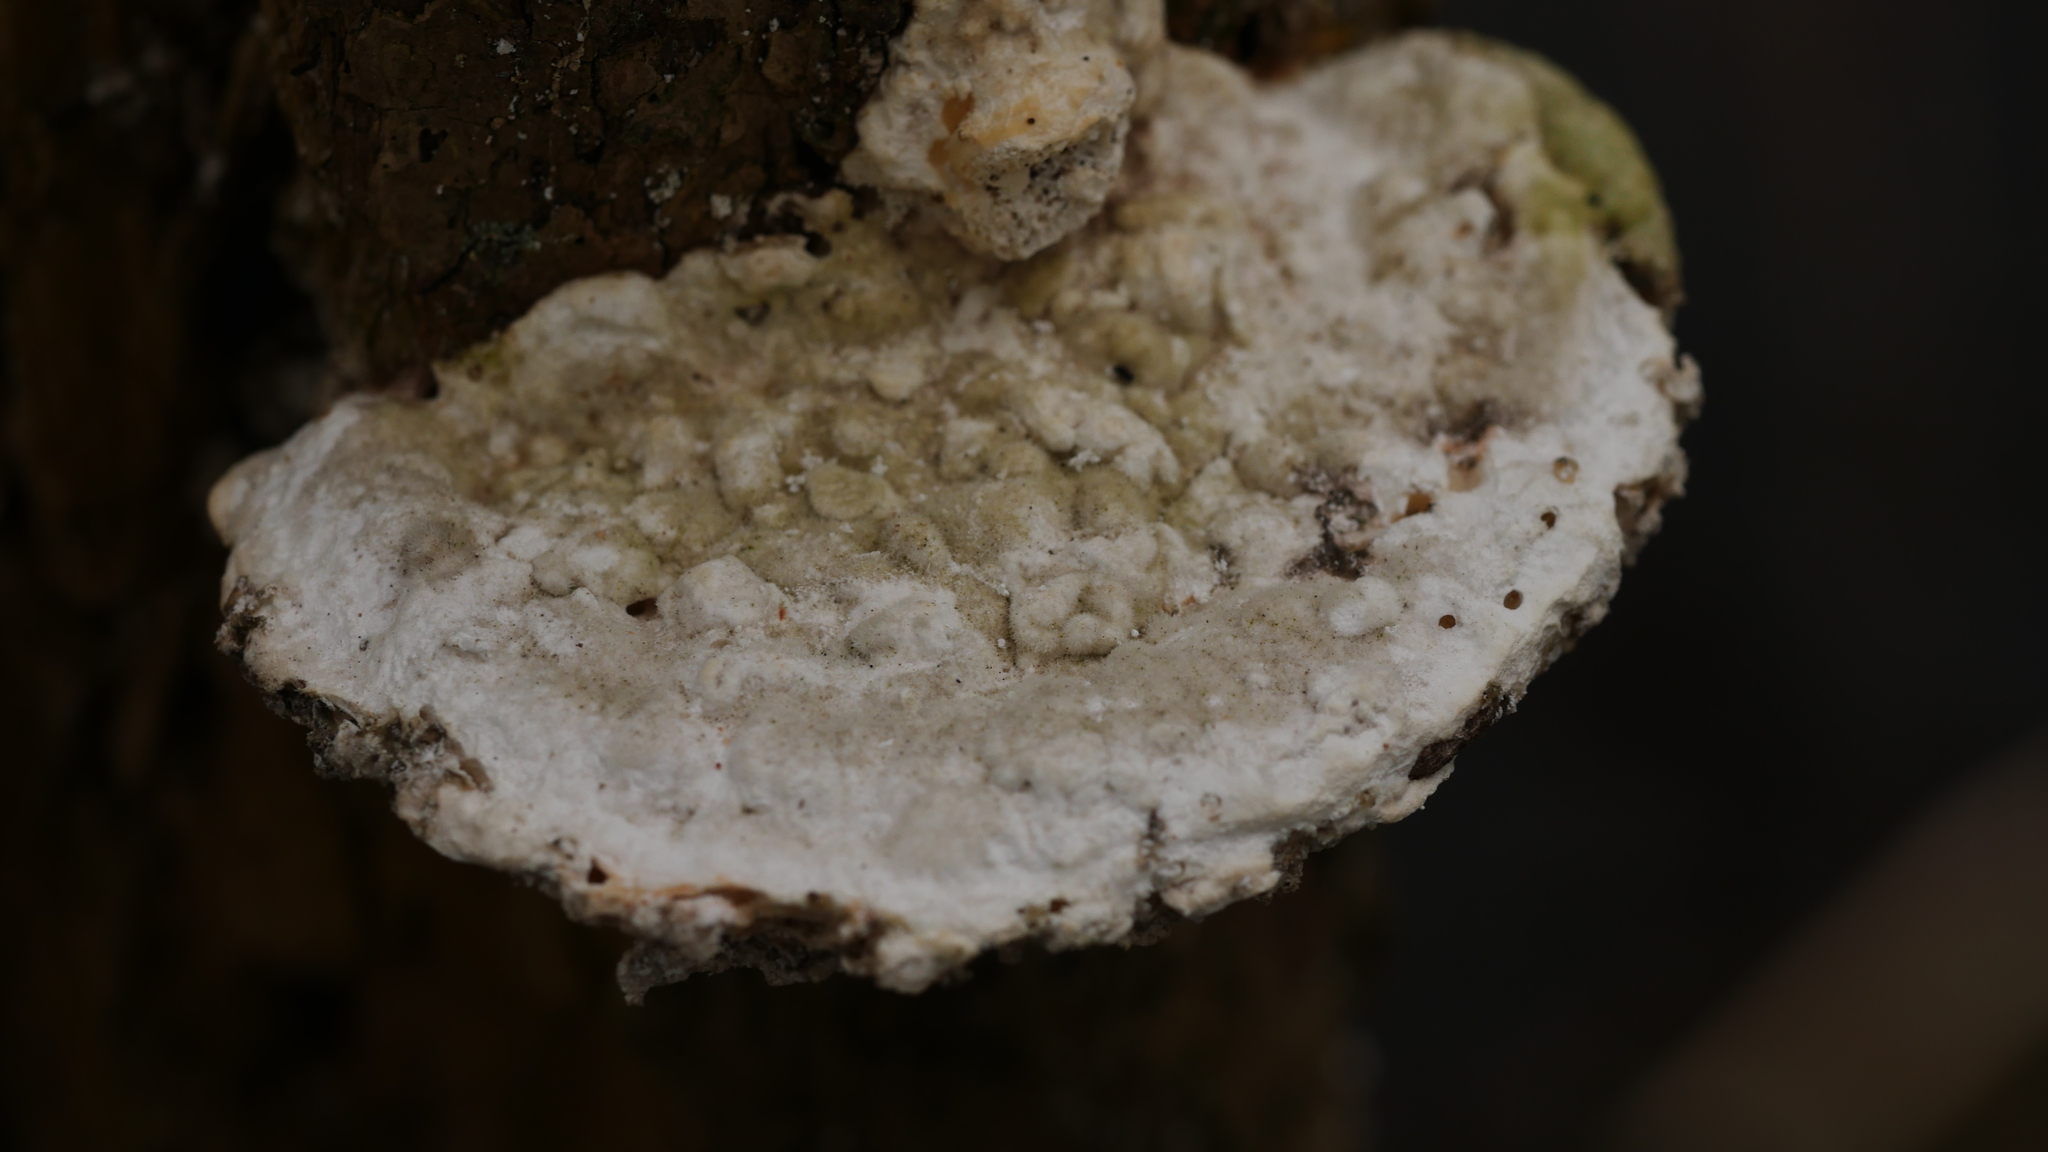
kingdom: Fungi
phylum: Basidiomycota
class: Agaricomycetes
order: Polyporales
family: Polyporaceae
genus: Trametes
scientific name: Trametes gibbosa
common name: Lumpy bracket
